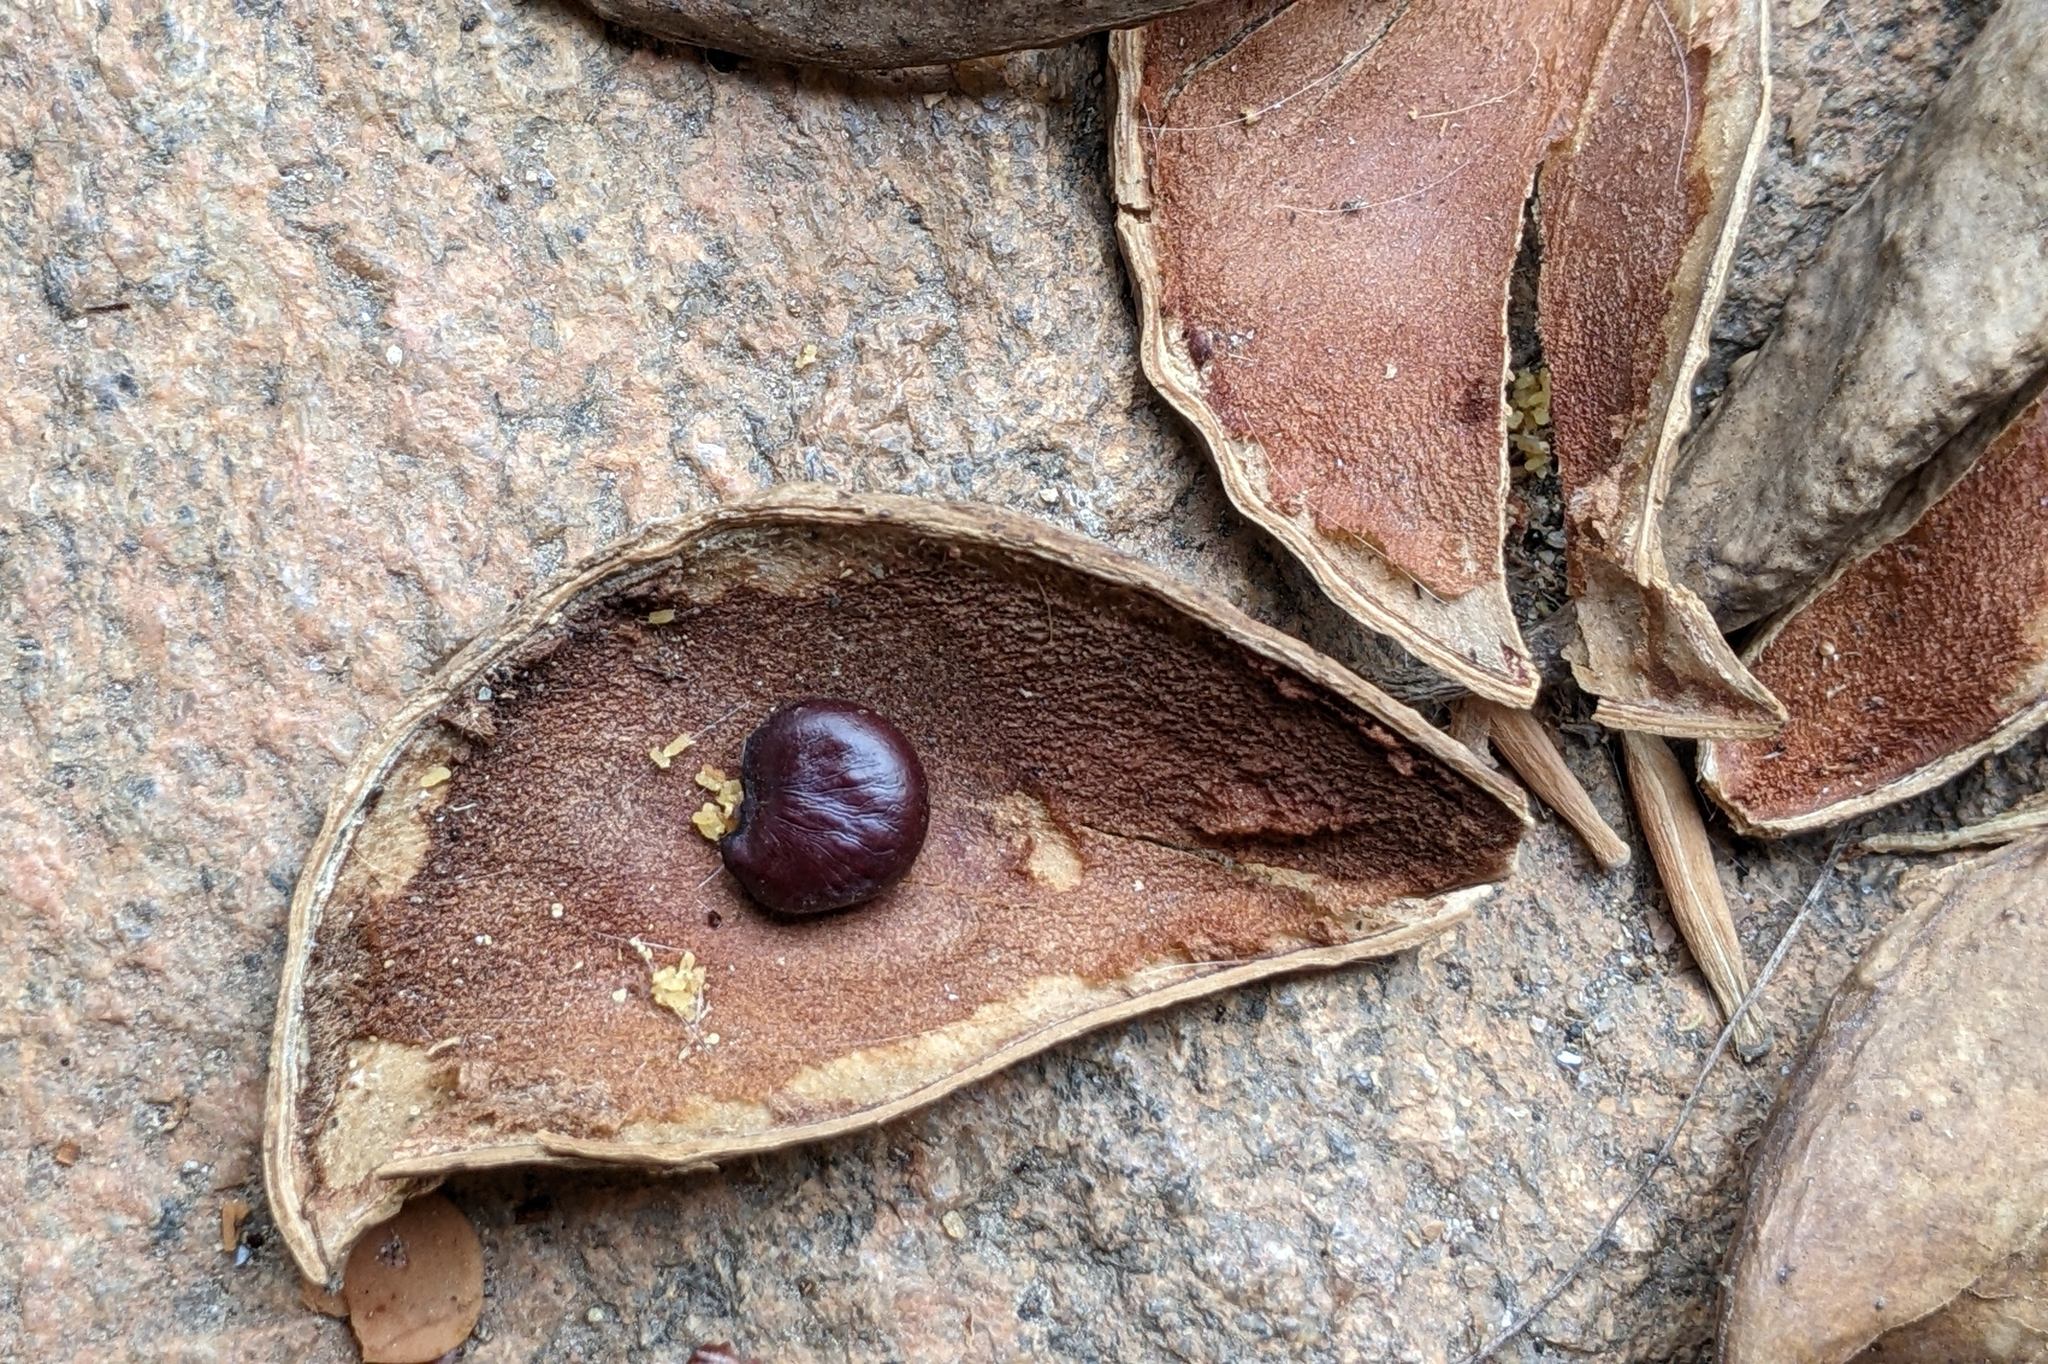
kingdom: Plantae
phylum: Tracheophyta
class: Magnoliopsida
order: Fabales
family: Fabaceae
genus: Pongamia
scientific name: Pongamia pinnata
